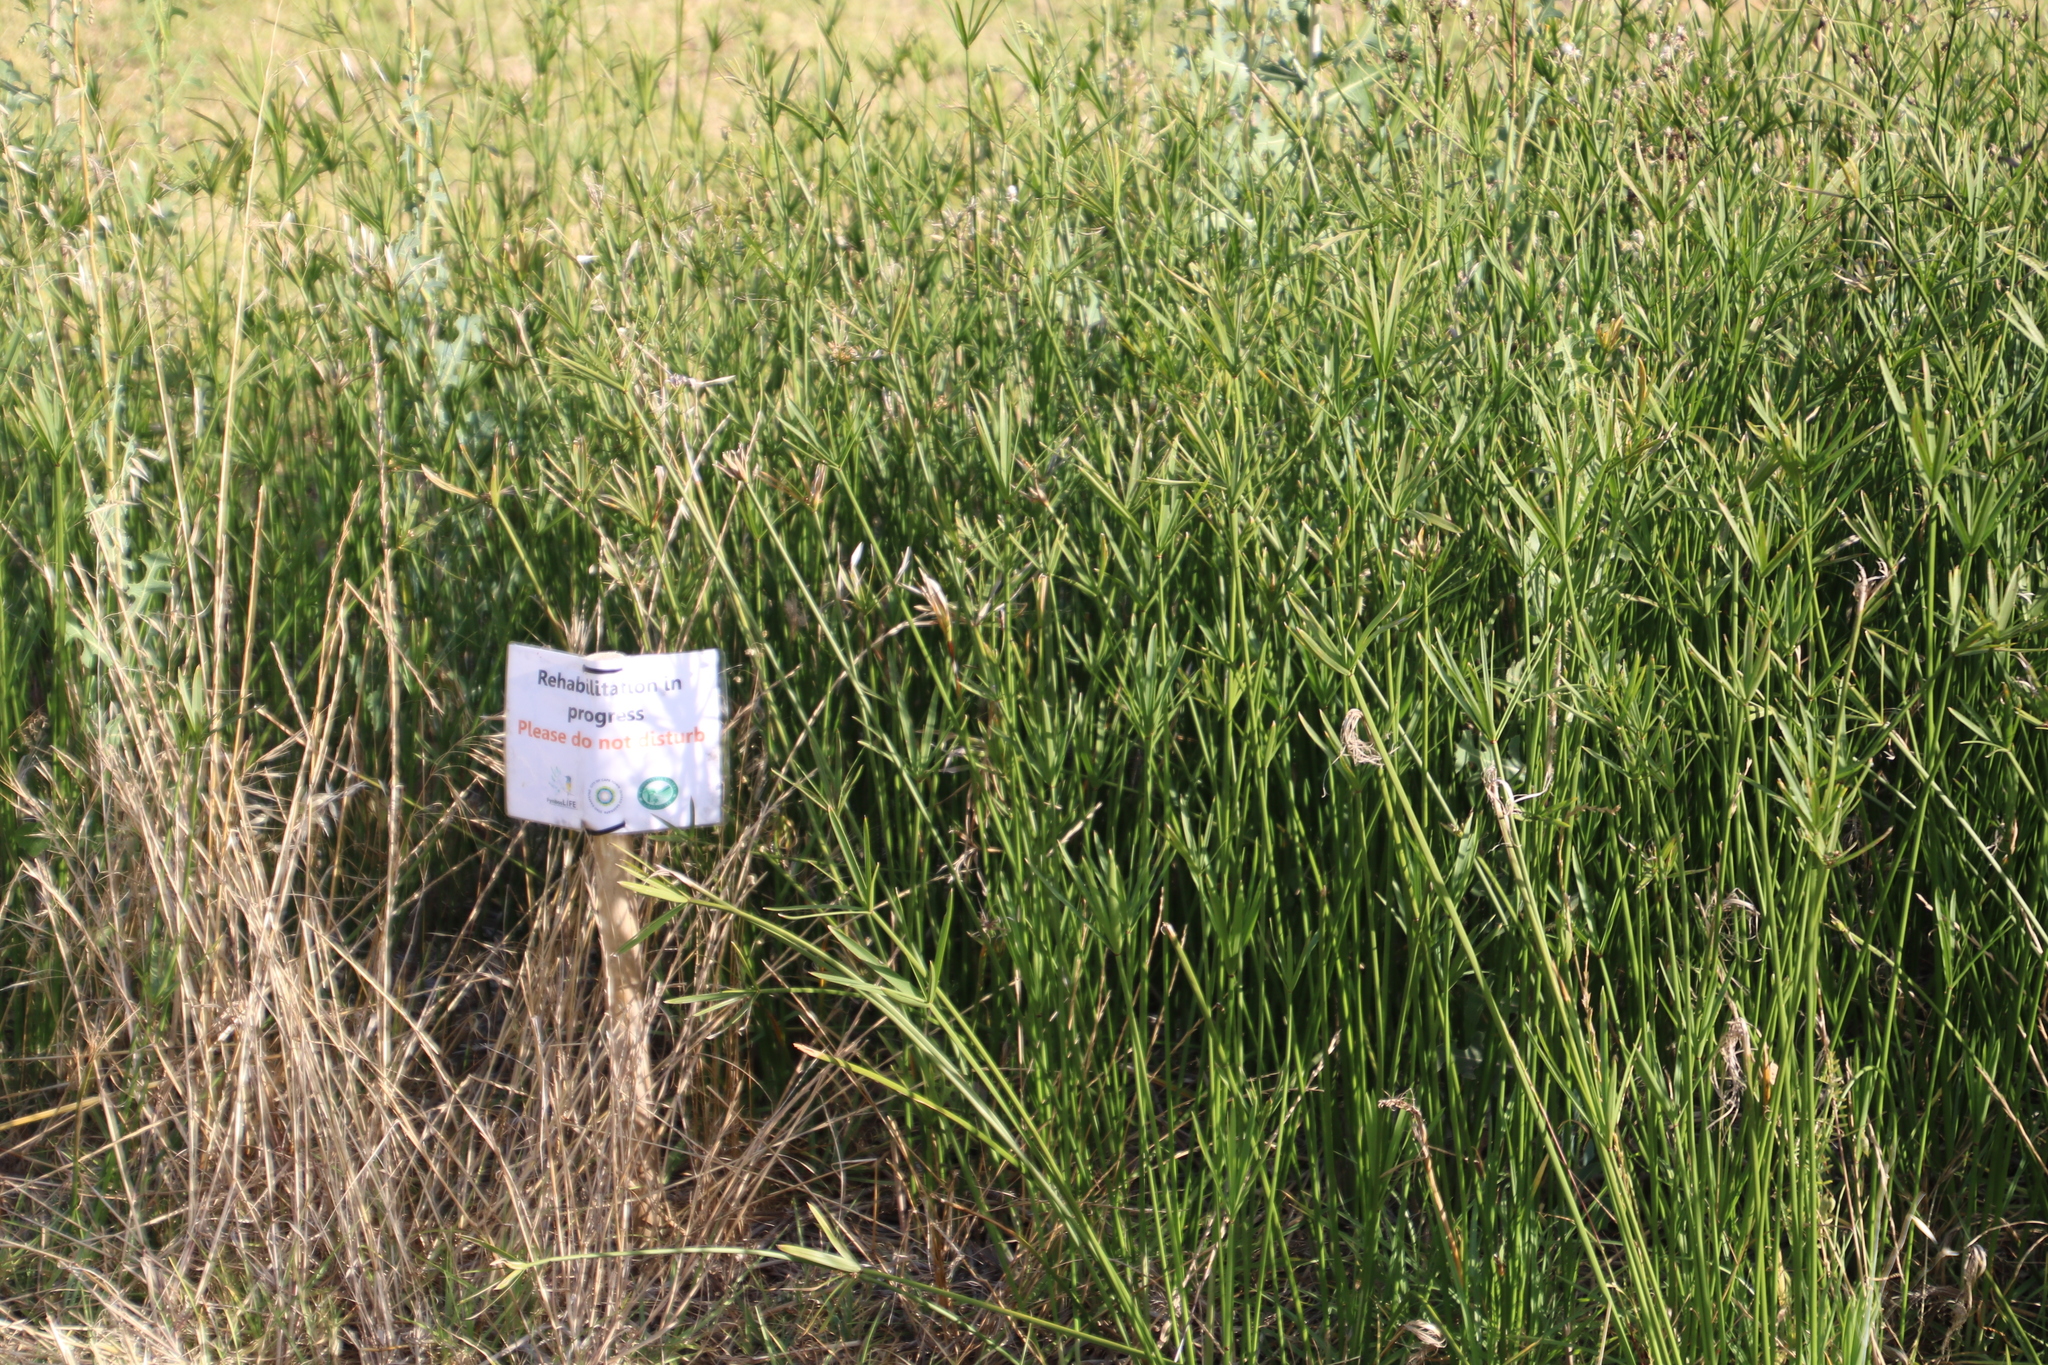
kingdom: Plantae
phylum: Tracheophyta
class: Liliopsida
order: Poales
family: Cyperaceae
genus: Cyperus
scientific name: Cyperus textilis
